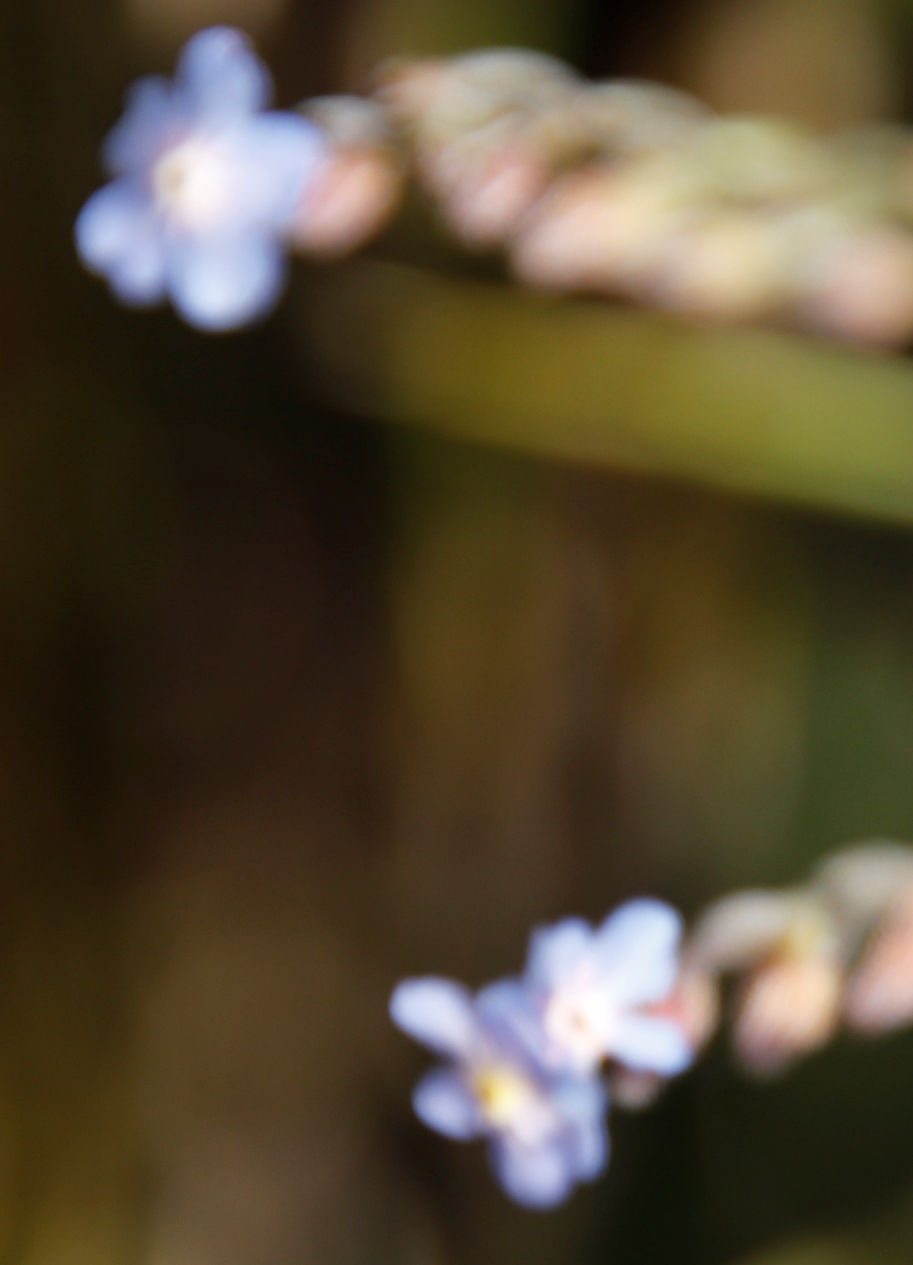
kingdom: Plantae
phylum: Tracheophyta
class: Magnoliopsida
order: Boraginales
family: Boraginaceae
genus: Myosotis
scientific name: Myosotis semiamplexicaulis
